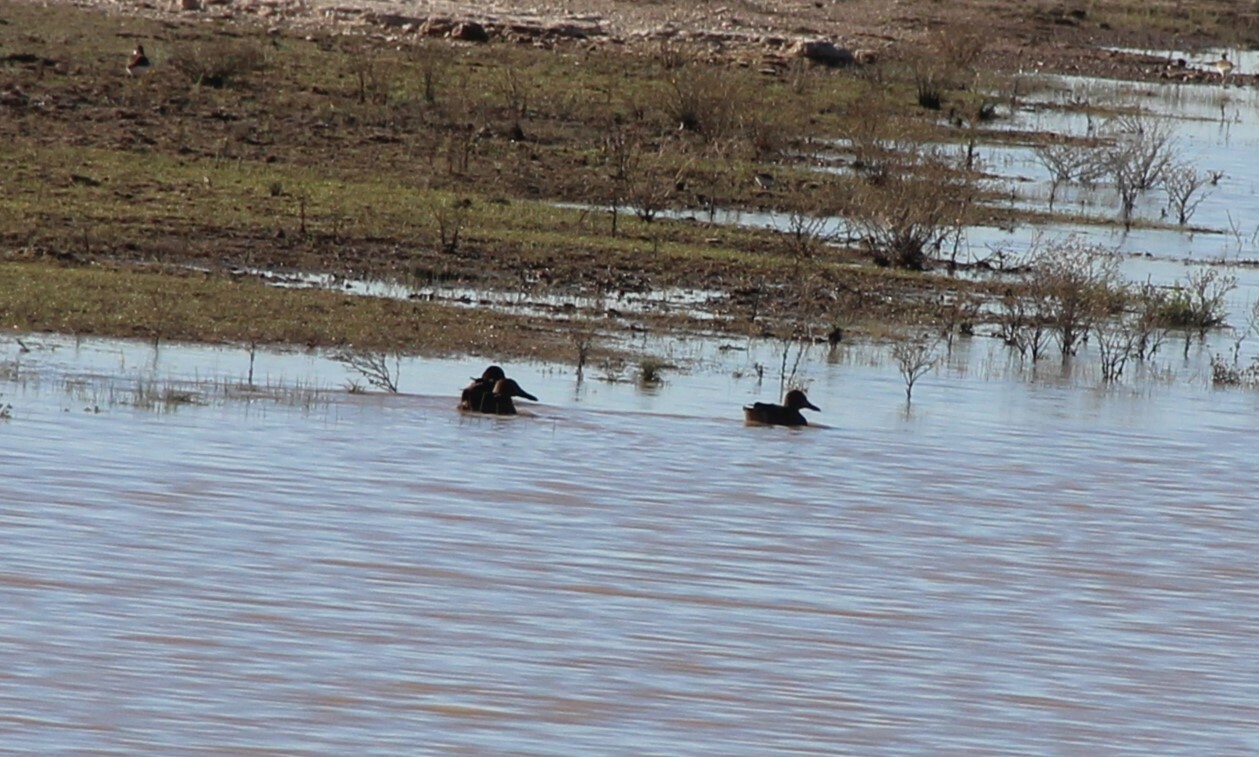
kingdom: Animalia
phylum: Chordata
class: Aves
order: Anseriformes
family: Anatidae
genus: Spatula
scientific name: Spatula clypeata
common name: Northern shoveler
